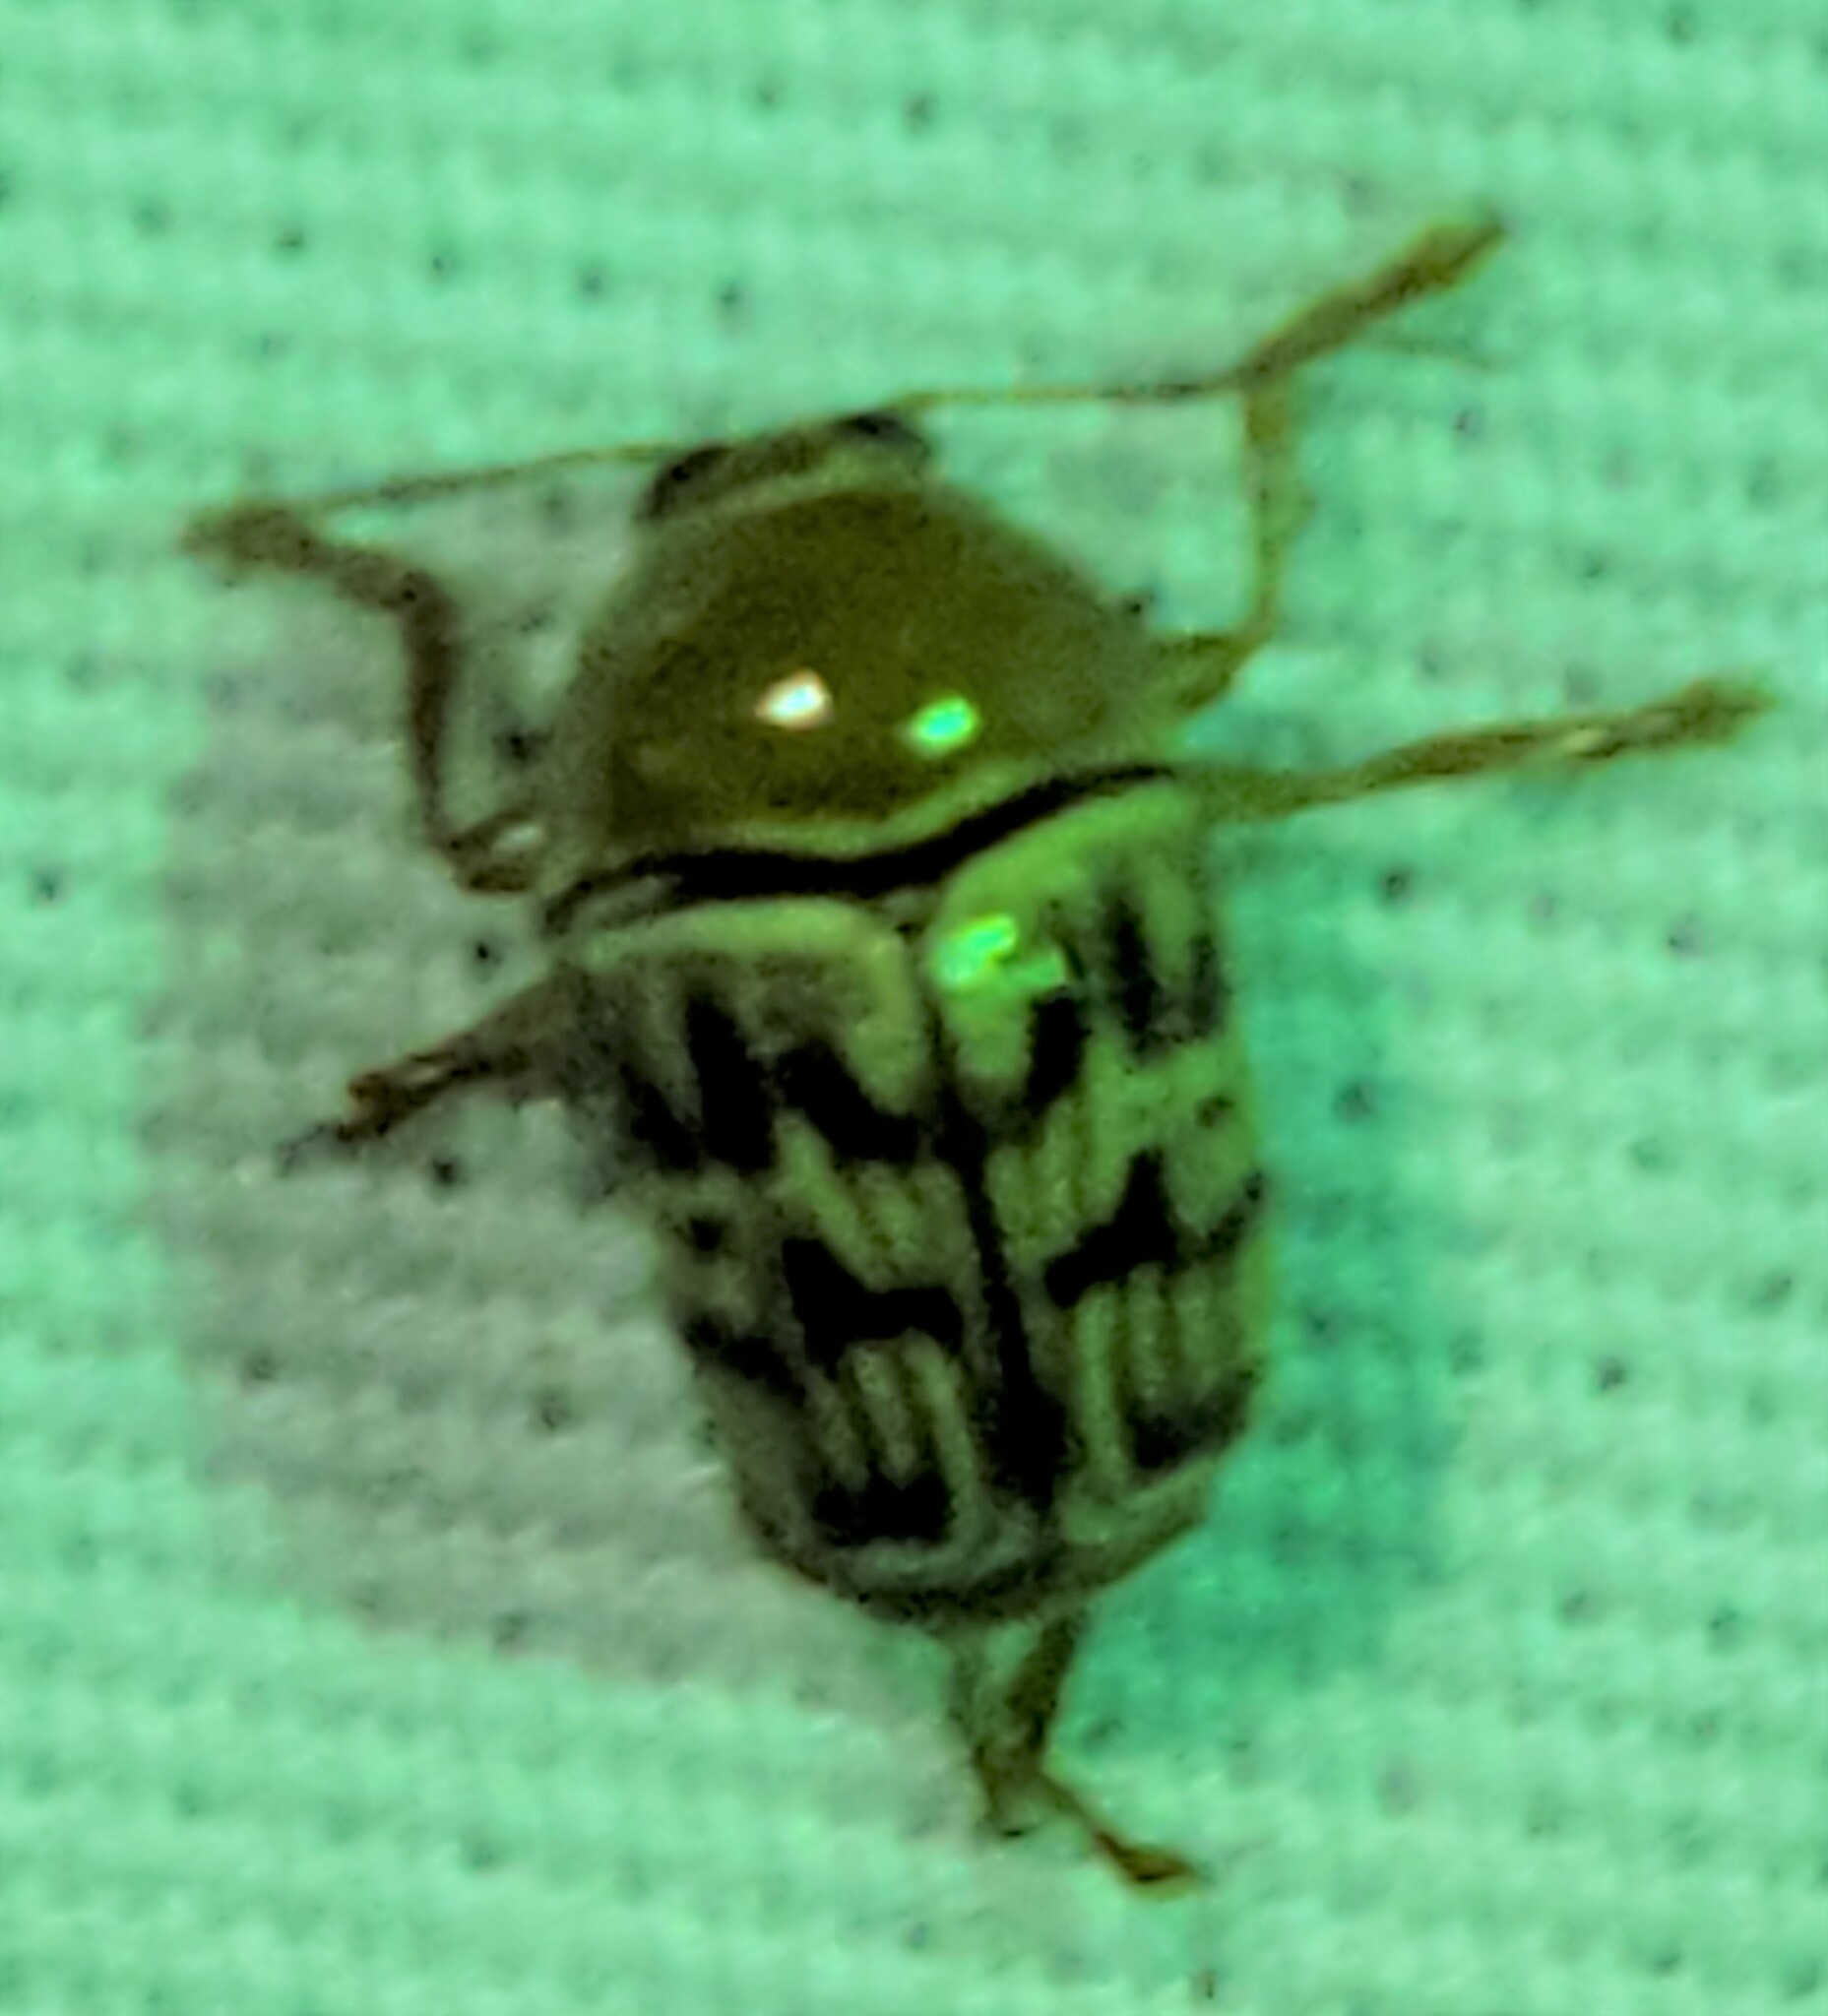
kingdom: Animalia
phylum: Arthropoda
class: Insecta
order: Coleoptera
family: Chrysomelidae
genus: Cryptocephalus
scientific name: Cryptocephalus fulguratus
